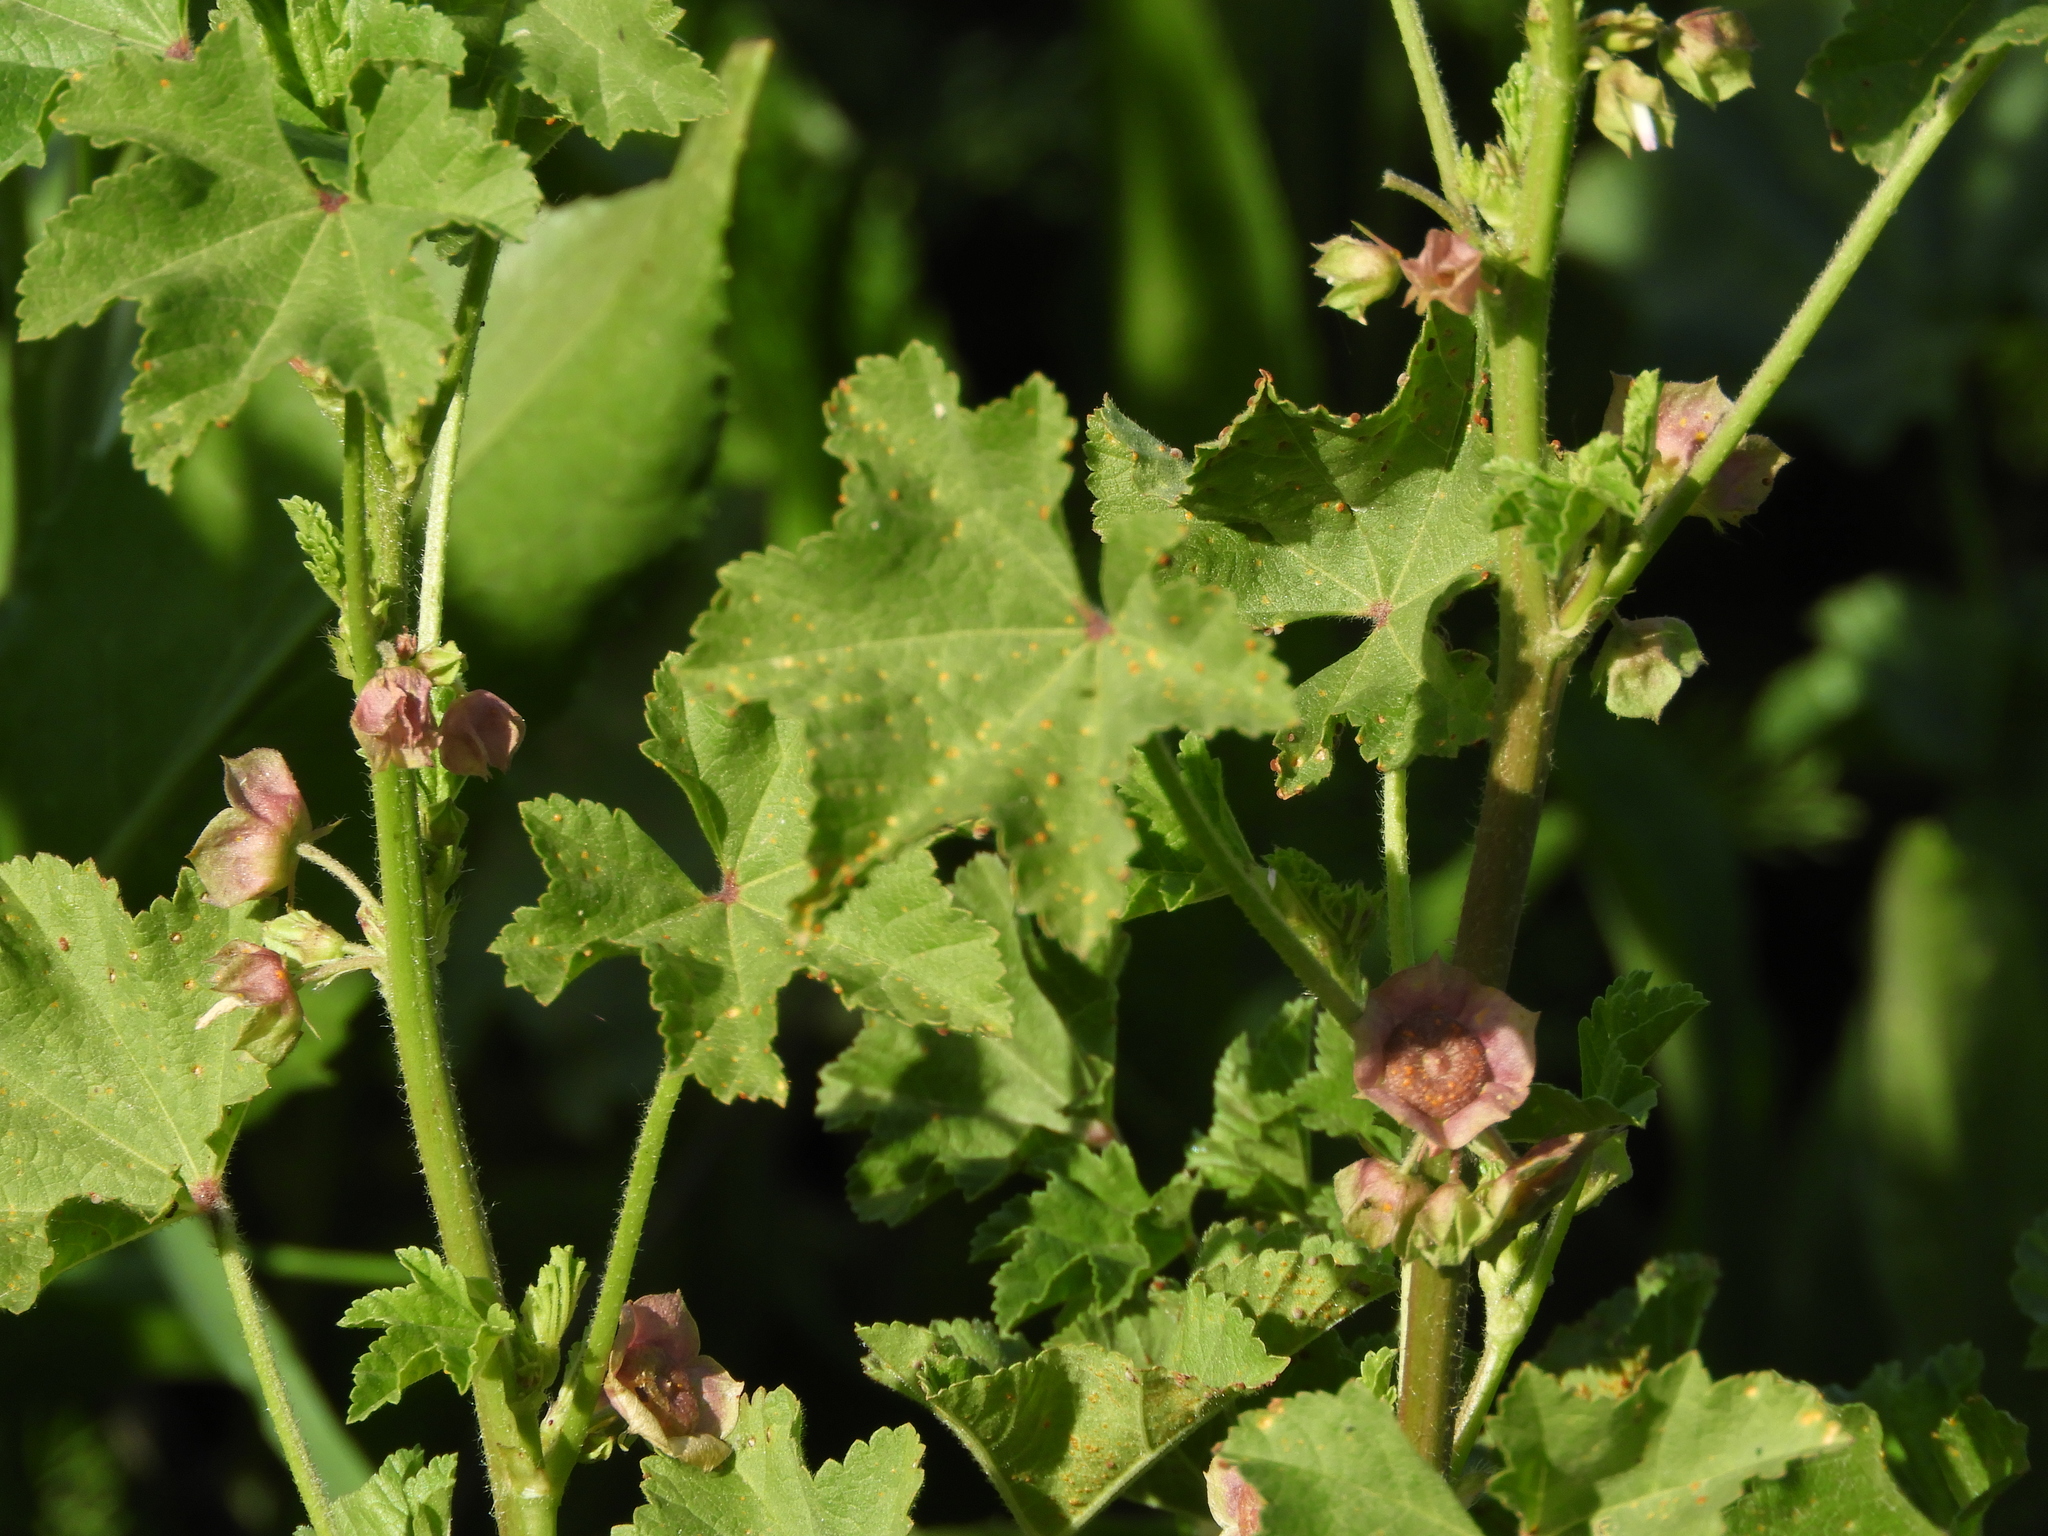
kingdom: Plantae
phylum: Tracheophyta
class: Magnoliopsida
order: Malvales
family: Malvaceae
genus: Malva
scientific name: Malva parviflora
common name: Least mallow
